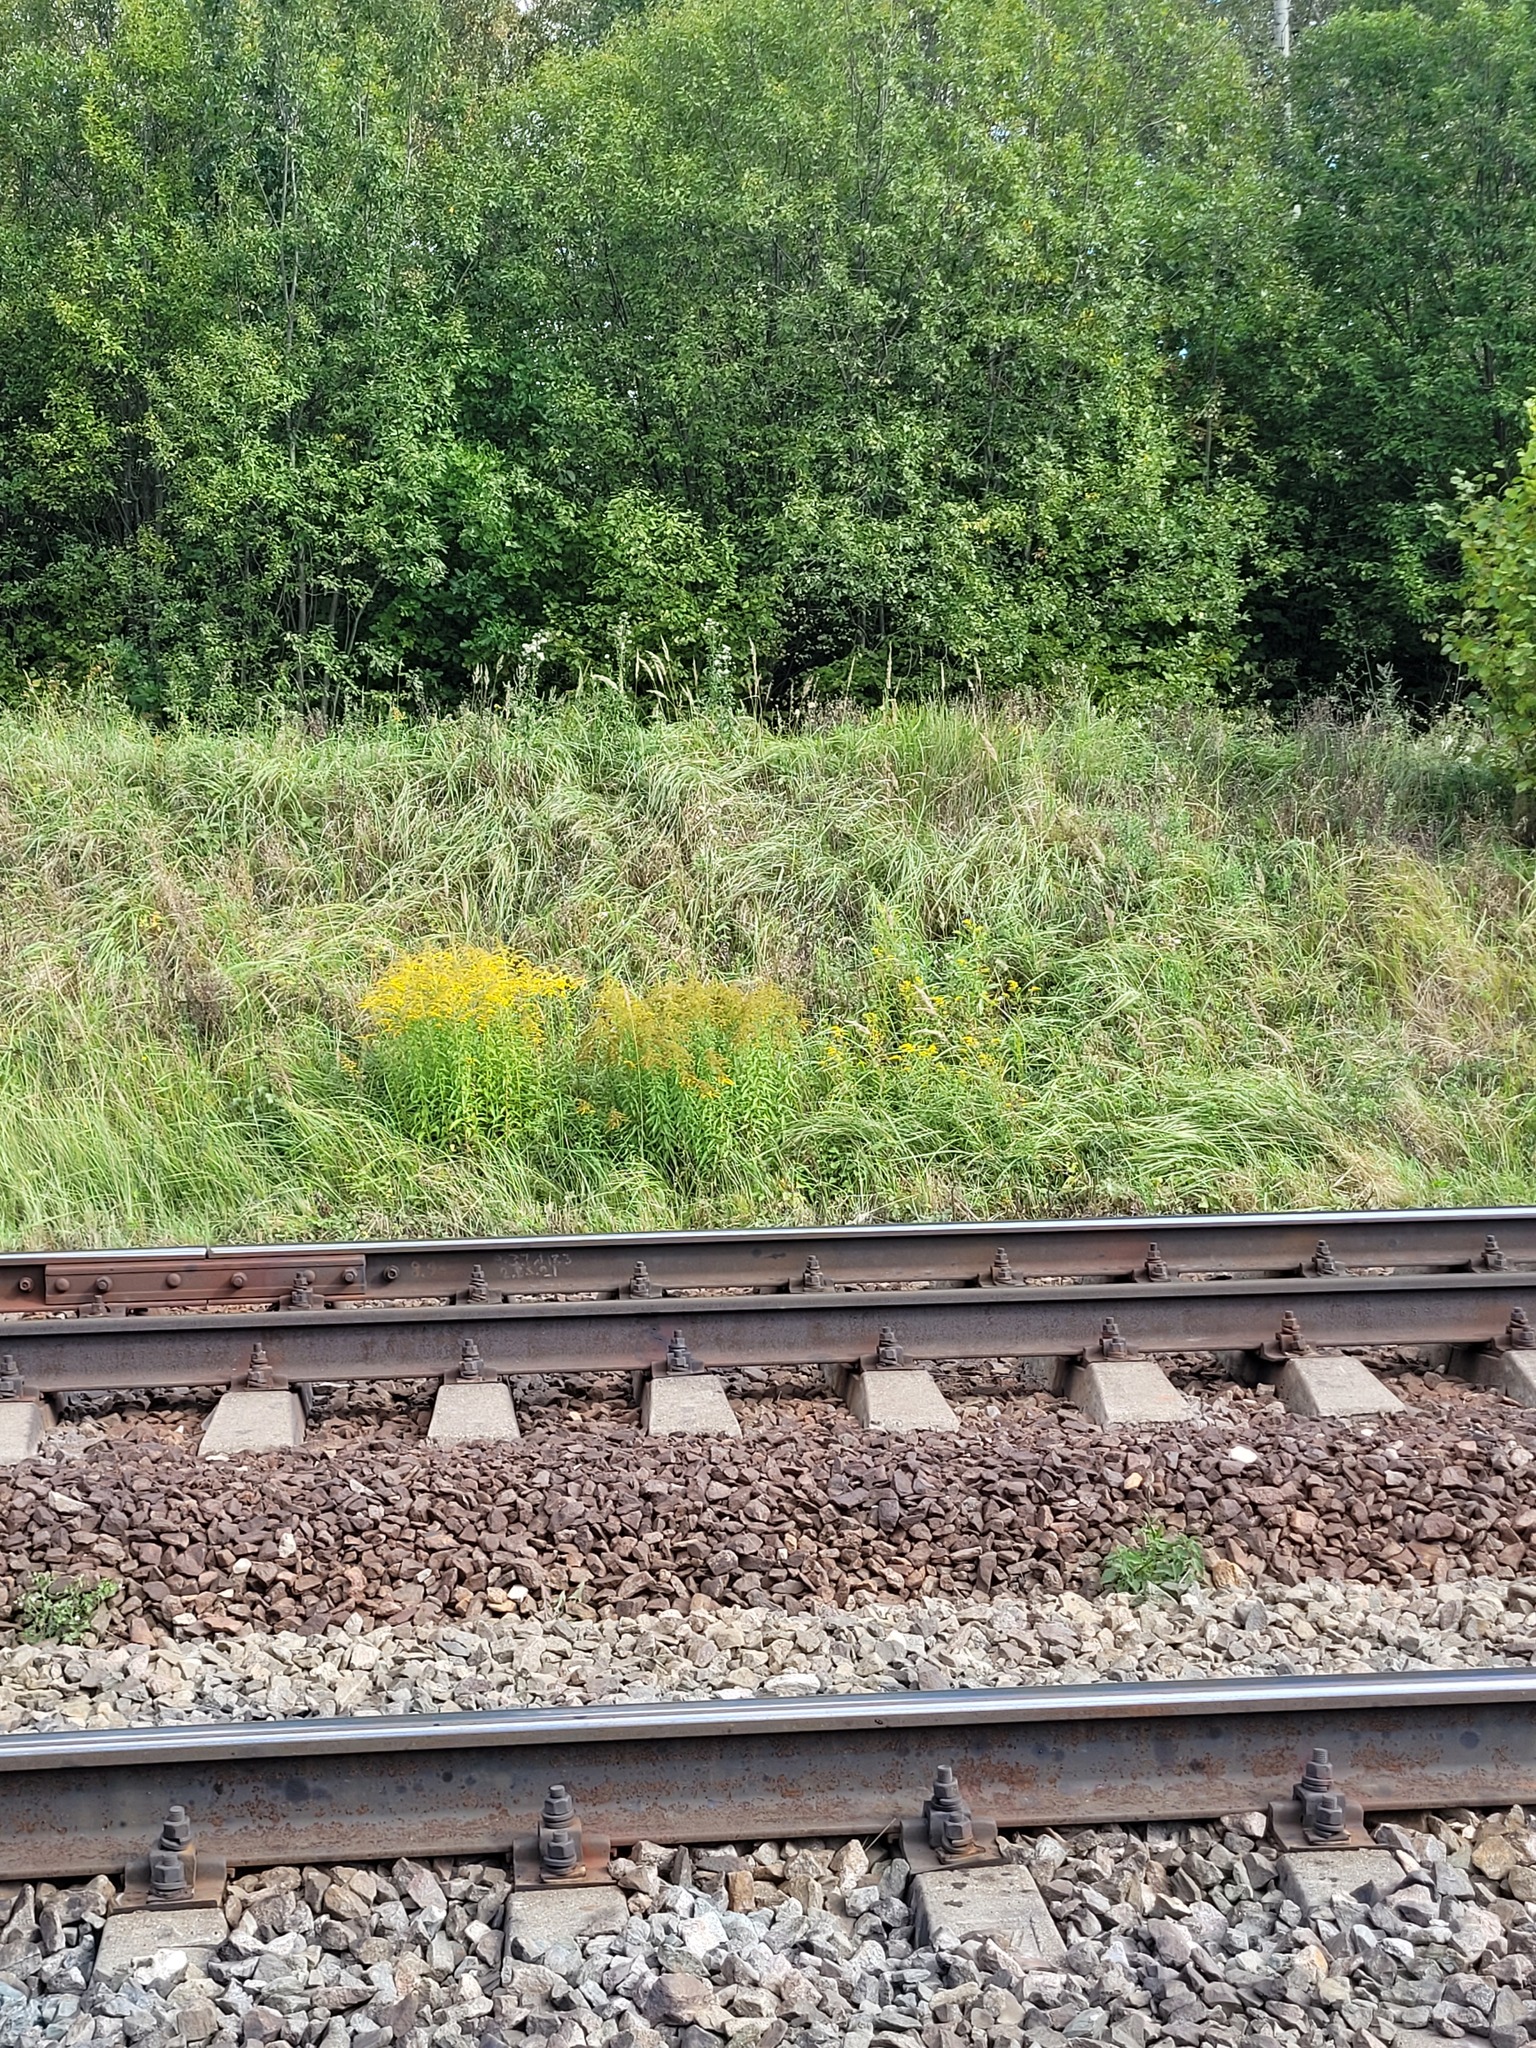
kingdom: Plantae
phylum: Tracheophyta
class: Magnoliopsida
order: Asterales
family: Asteraceae
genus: Solidago
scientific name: Solidago canadensis
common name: Canada goldenrod
